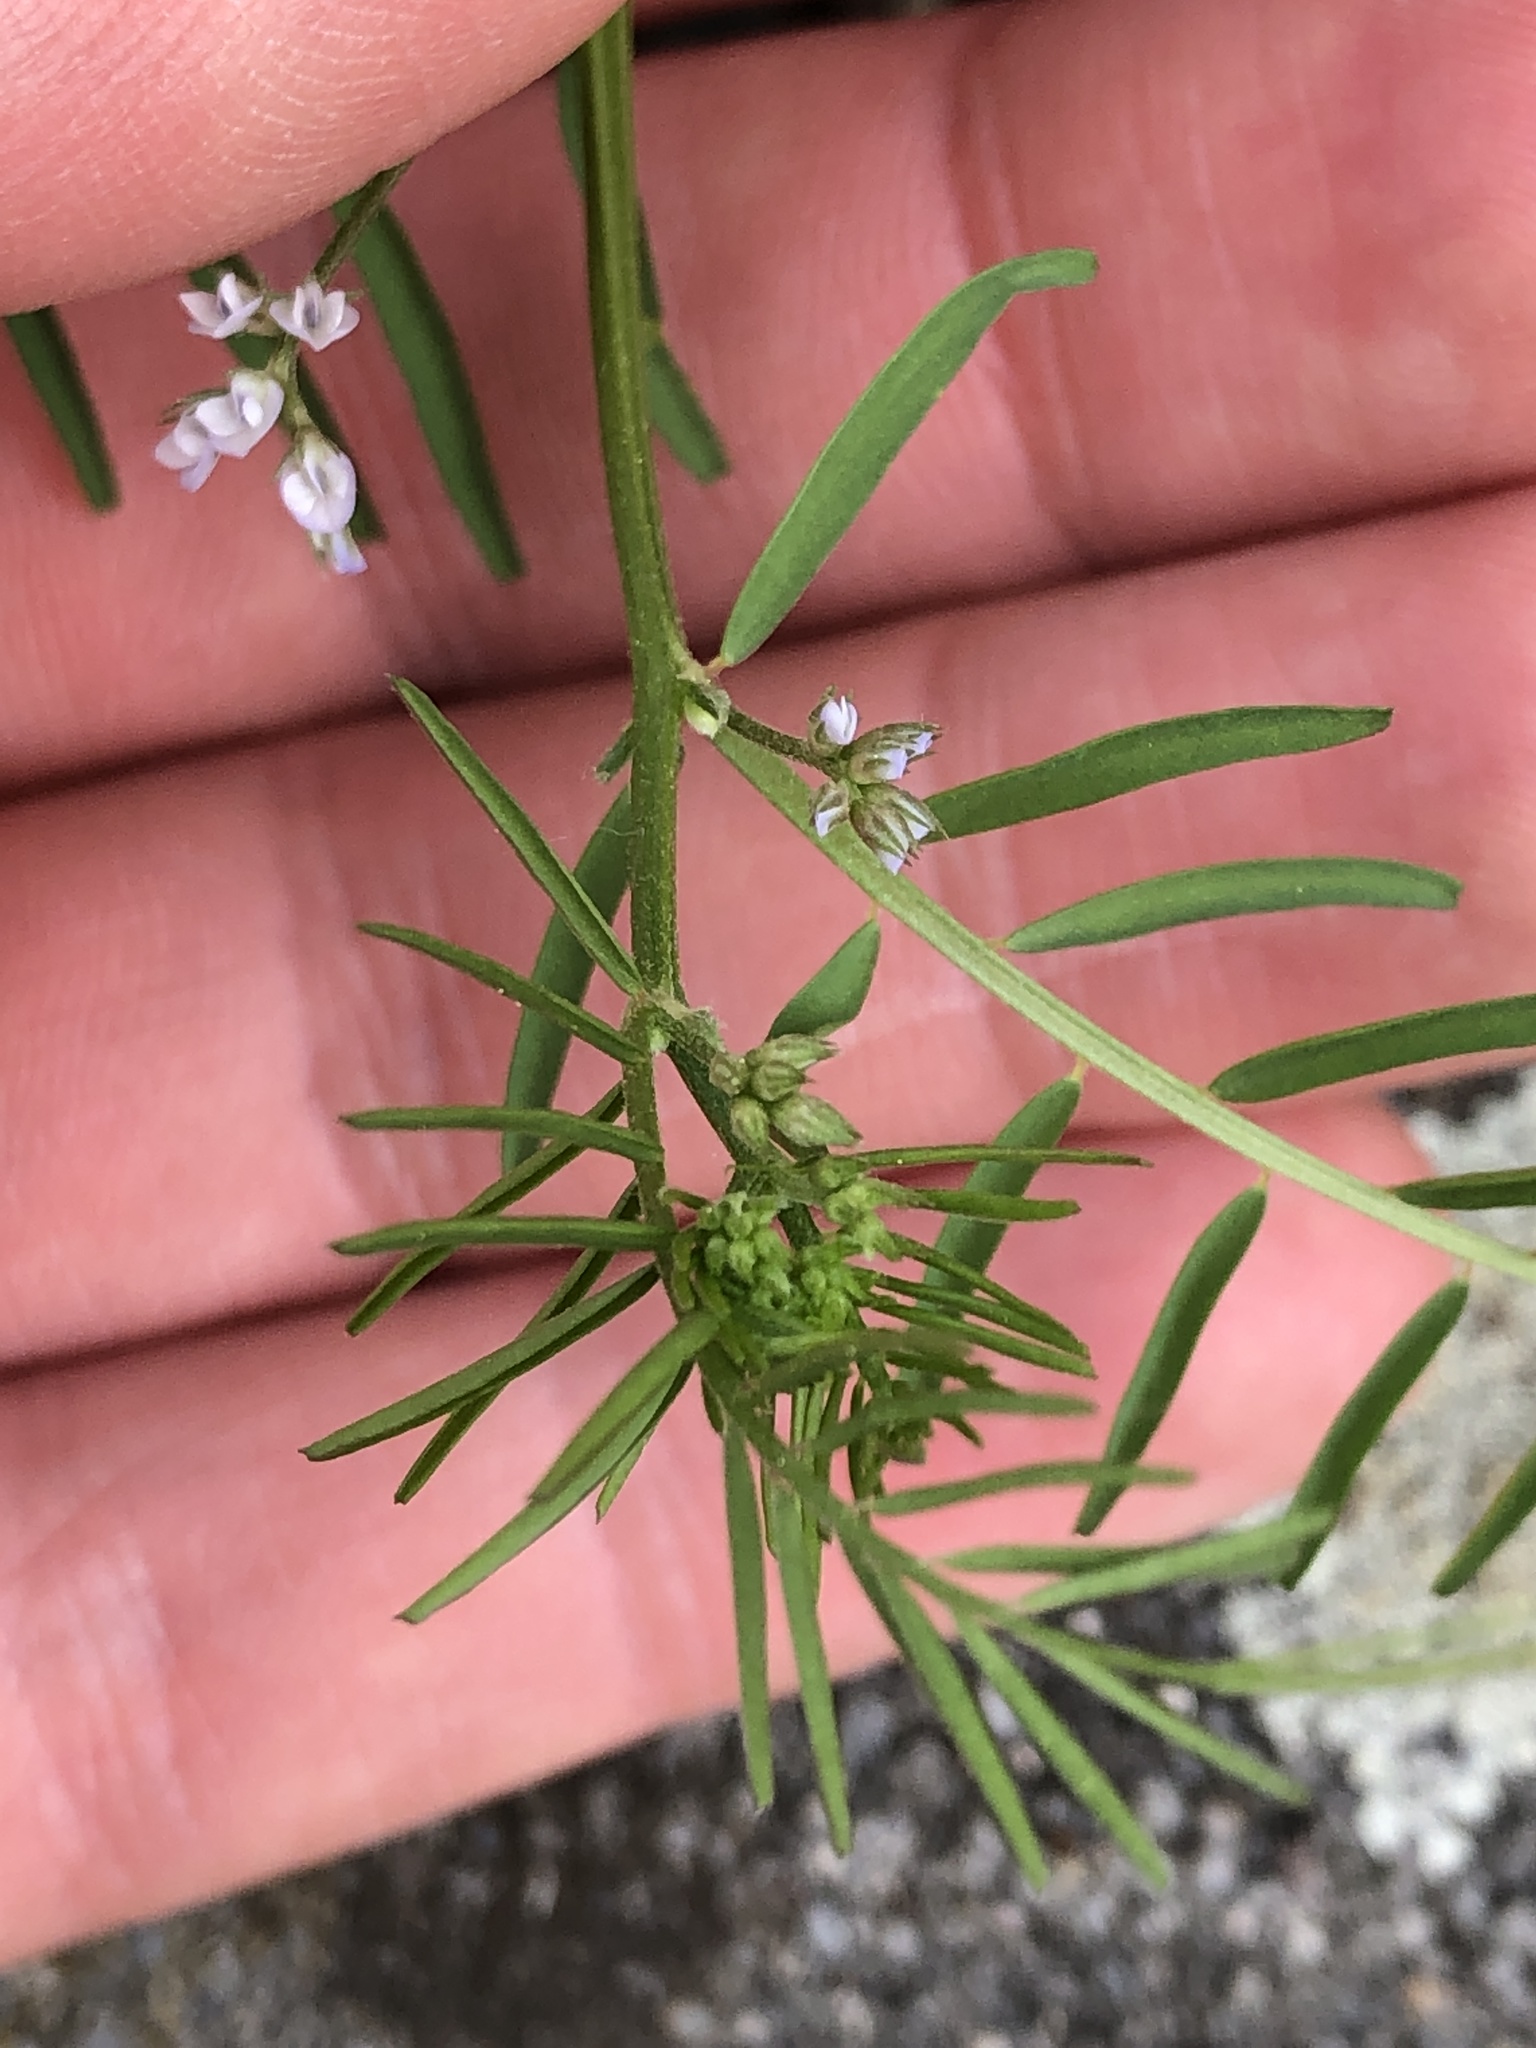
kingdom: Plantae
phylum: Tracheophyta
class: Magnoliopsida
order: Fabales
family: Fabaceae
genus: Vicia
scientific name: Vicia hirsuta
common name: Tiny vetch
